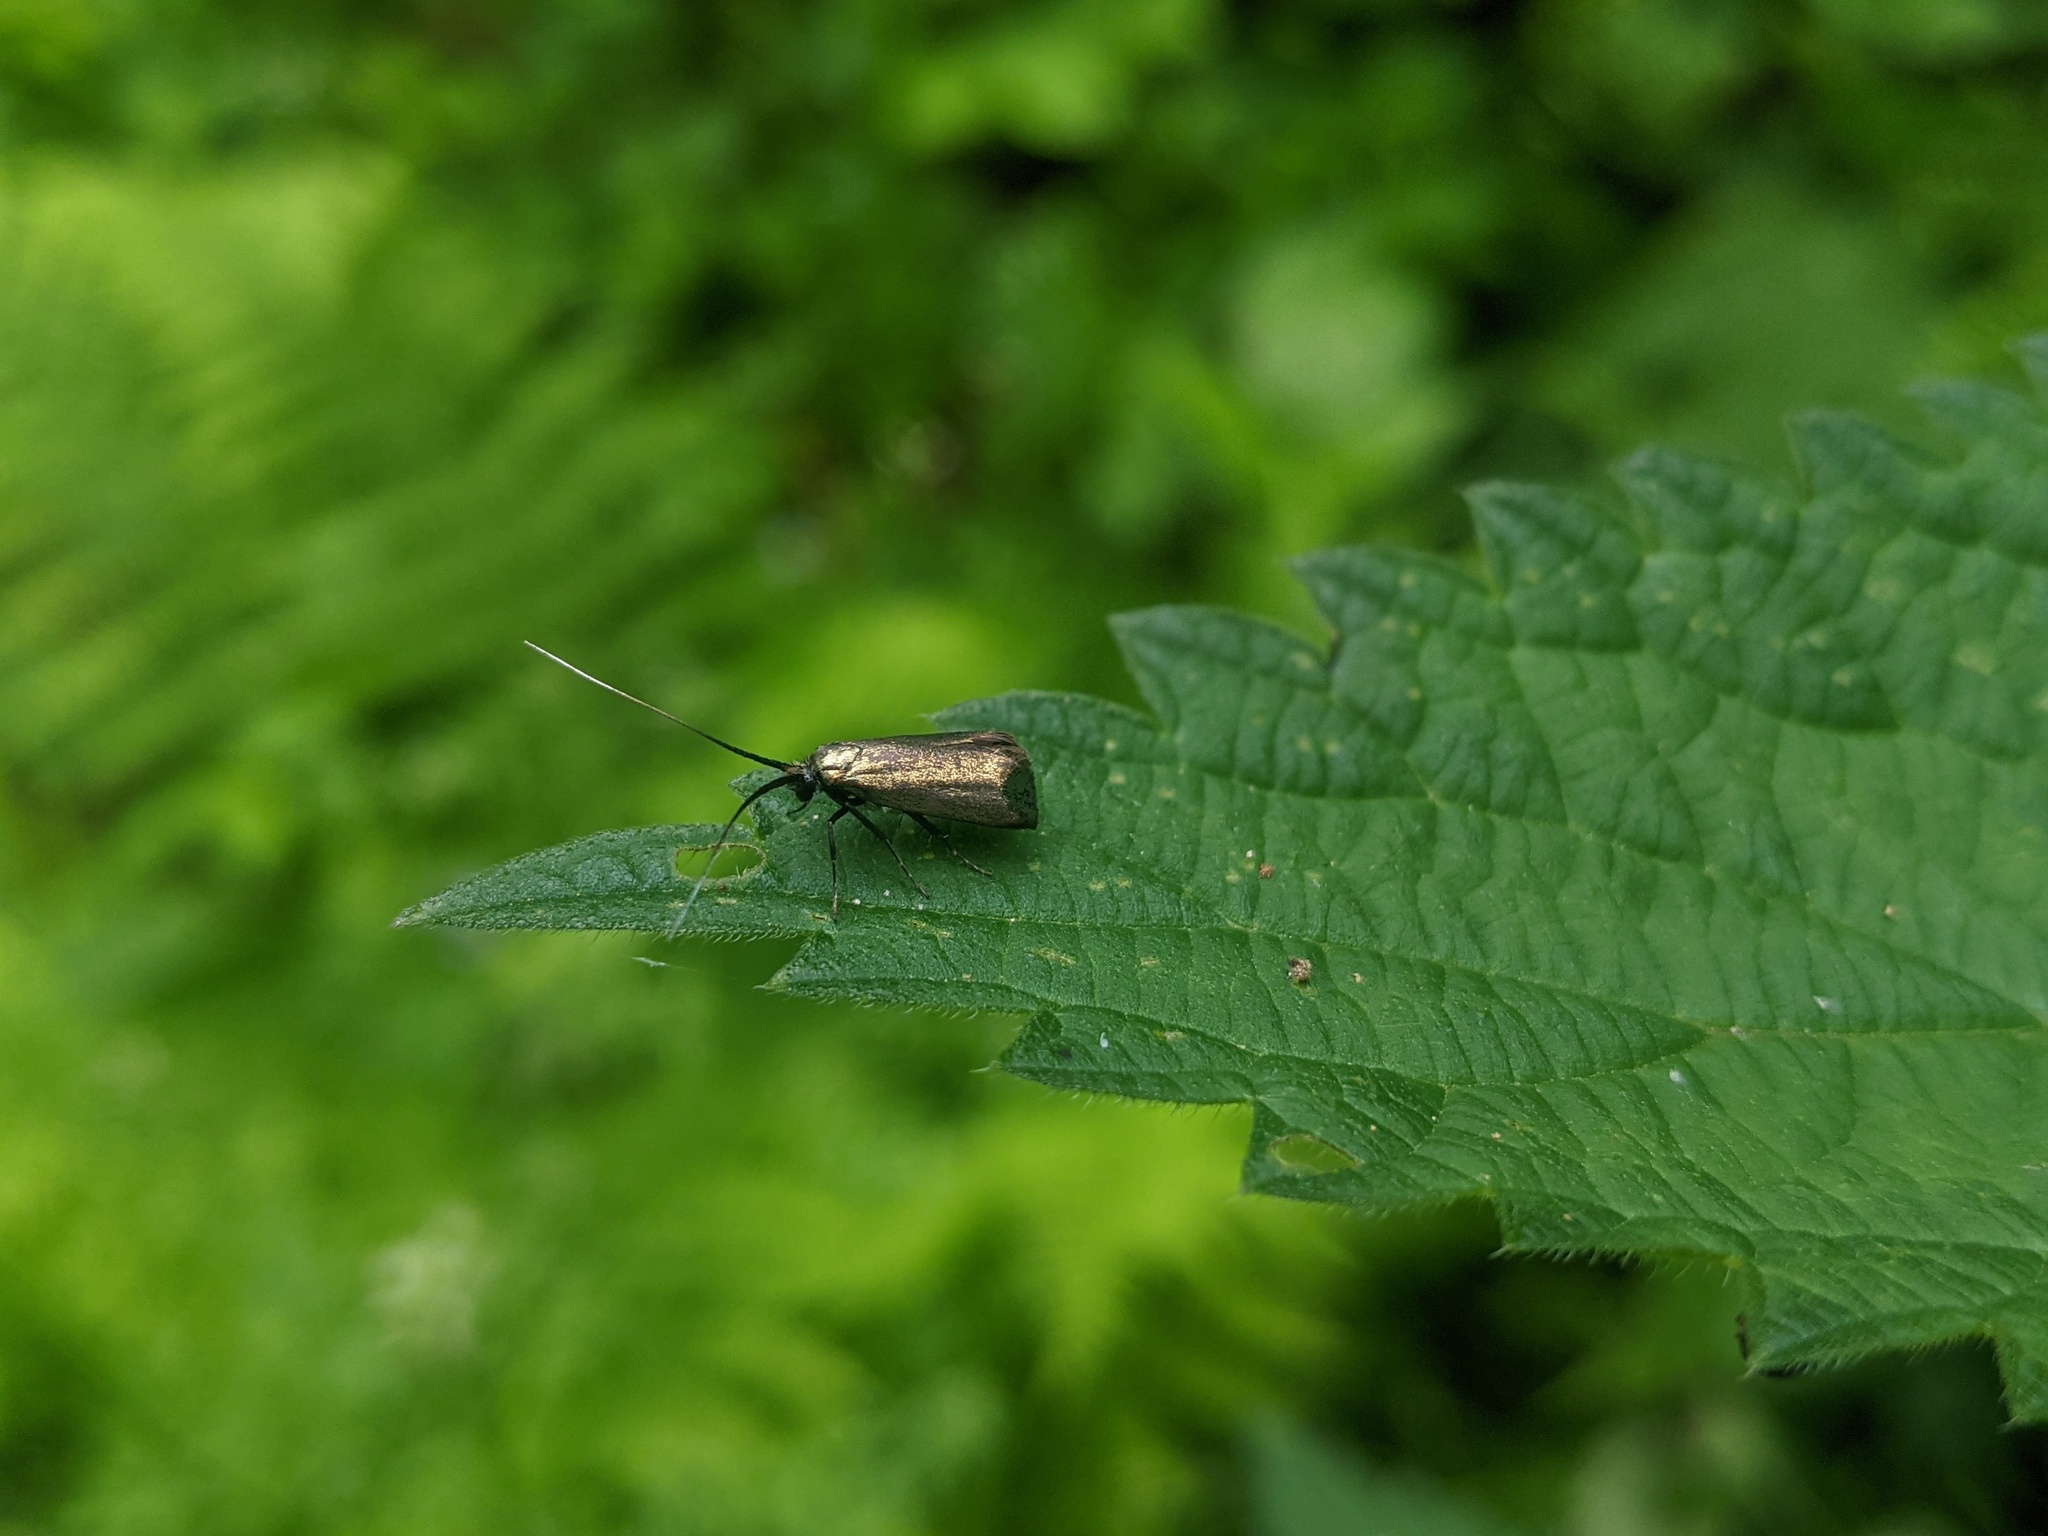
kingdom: Animalia
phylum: Arthropoda
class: Insecta
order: Lepidoptera
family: Adelidae
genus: Adela
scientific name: Adela viridella
